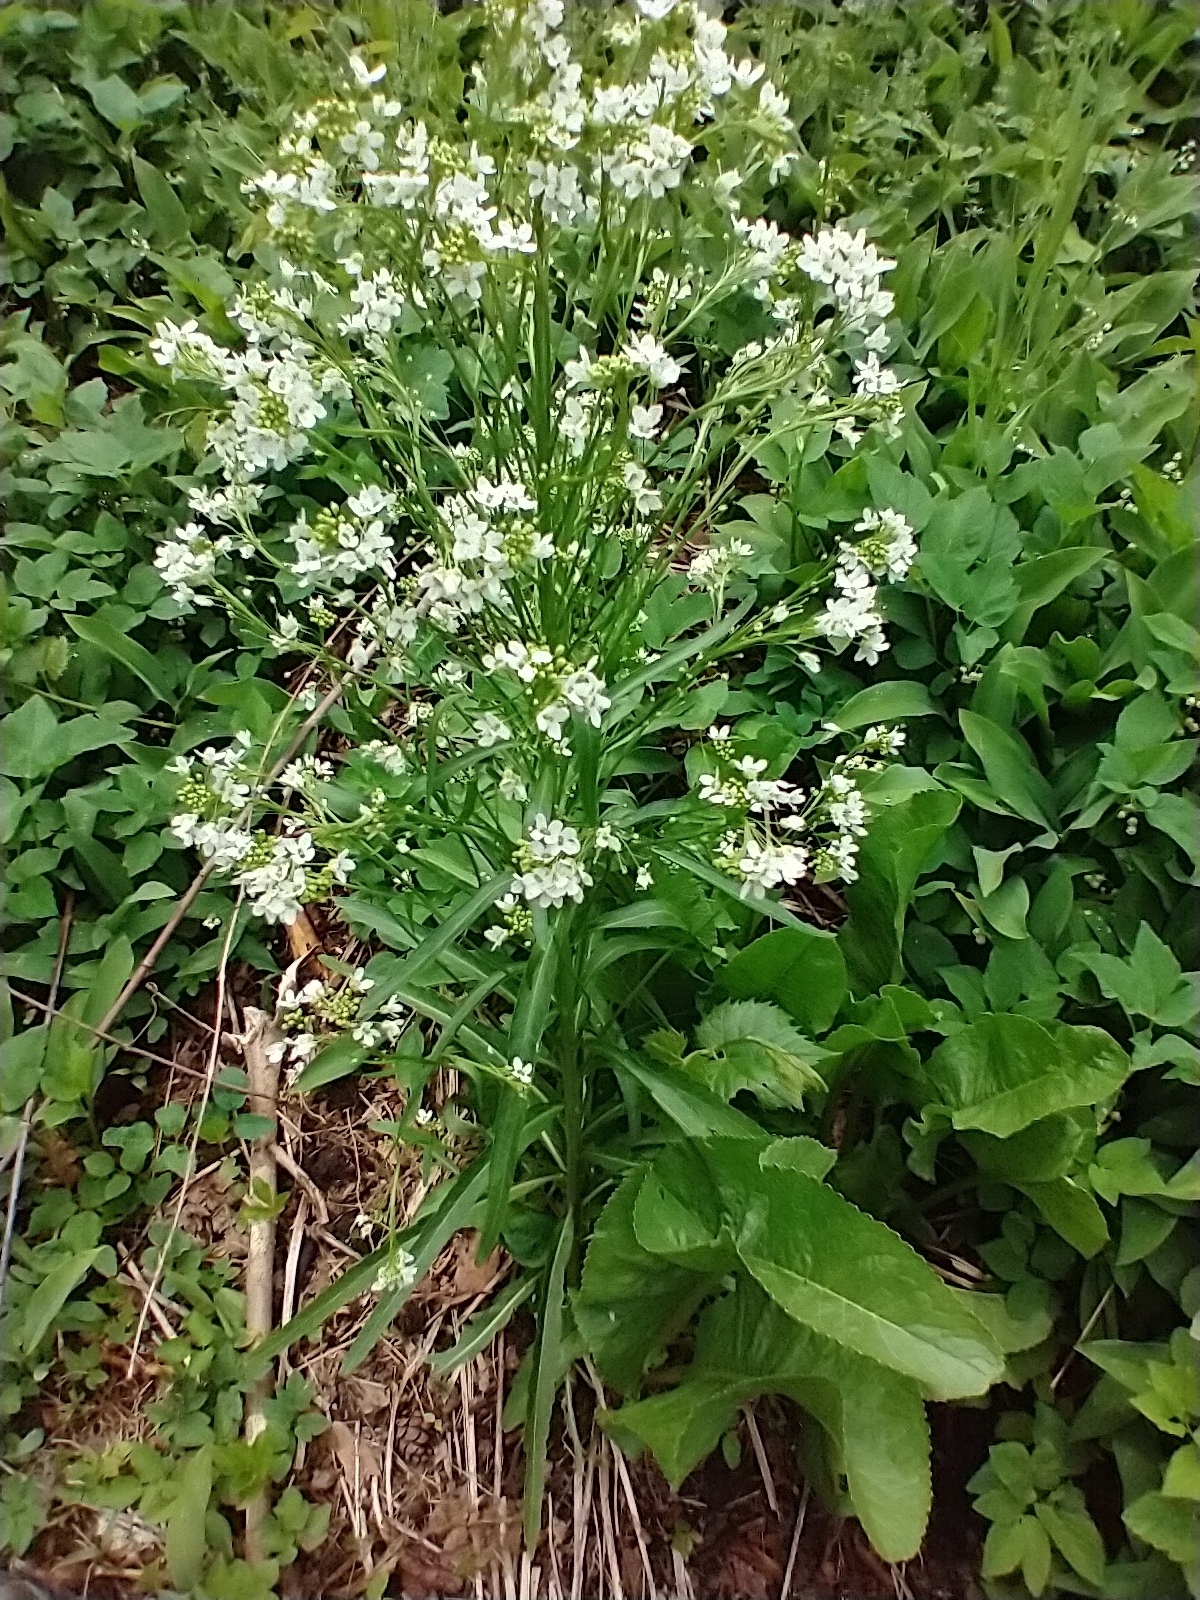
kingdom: Plantae
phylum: Tracheophyta
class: Magnoliopsida
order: Brassicales
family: Brassicaceae
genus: Armoracia
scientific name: Armoracia rusticana
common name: Horseradish
